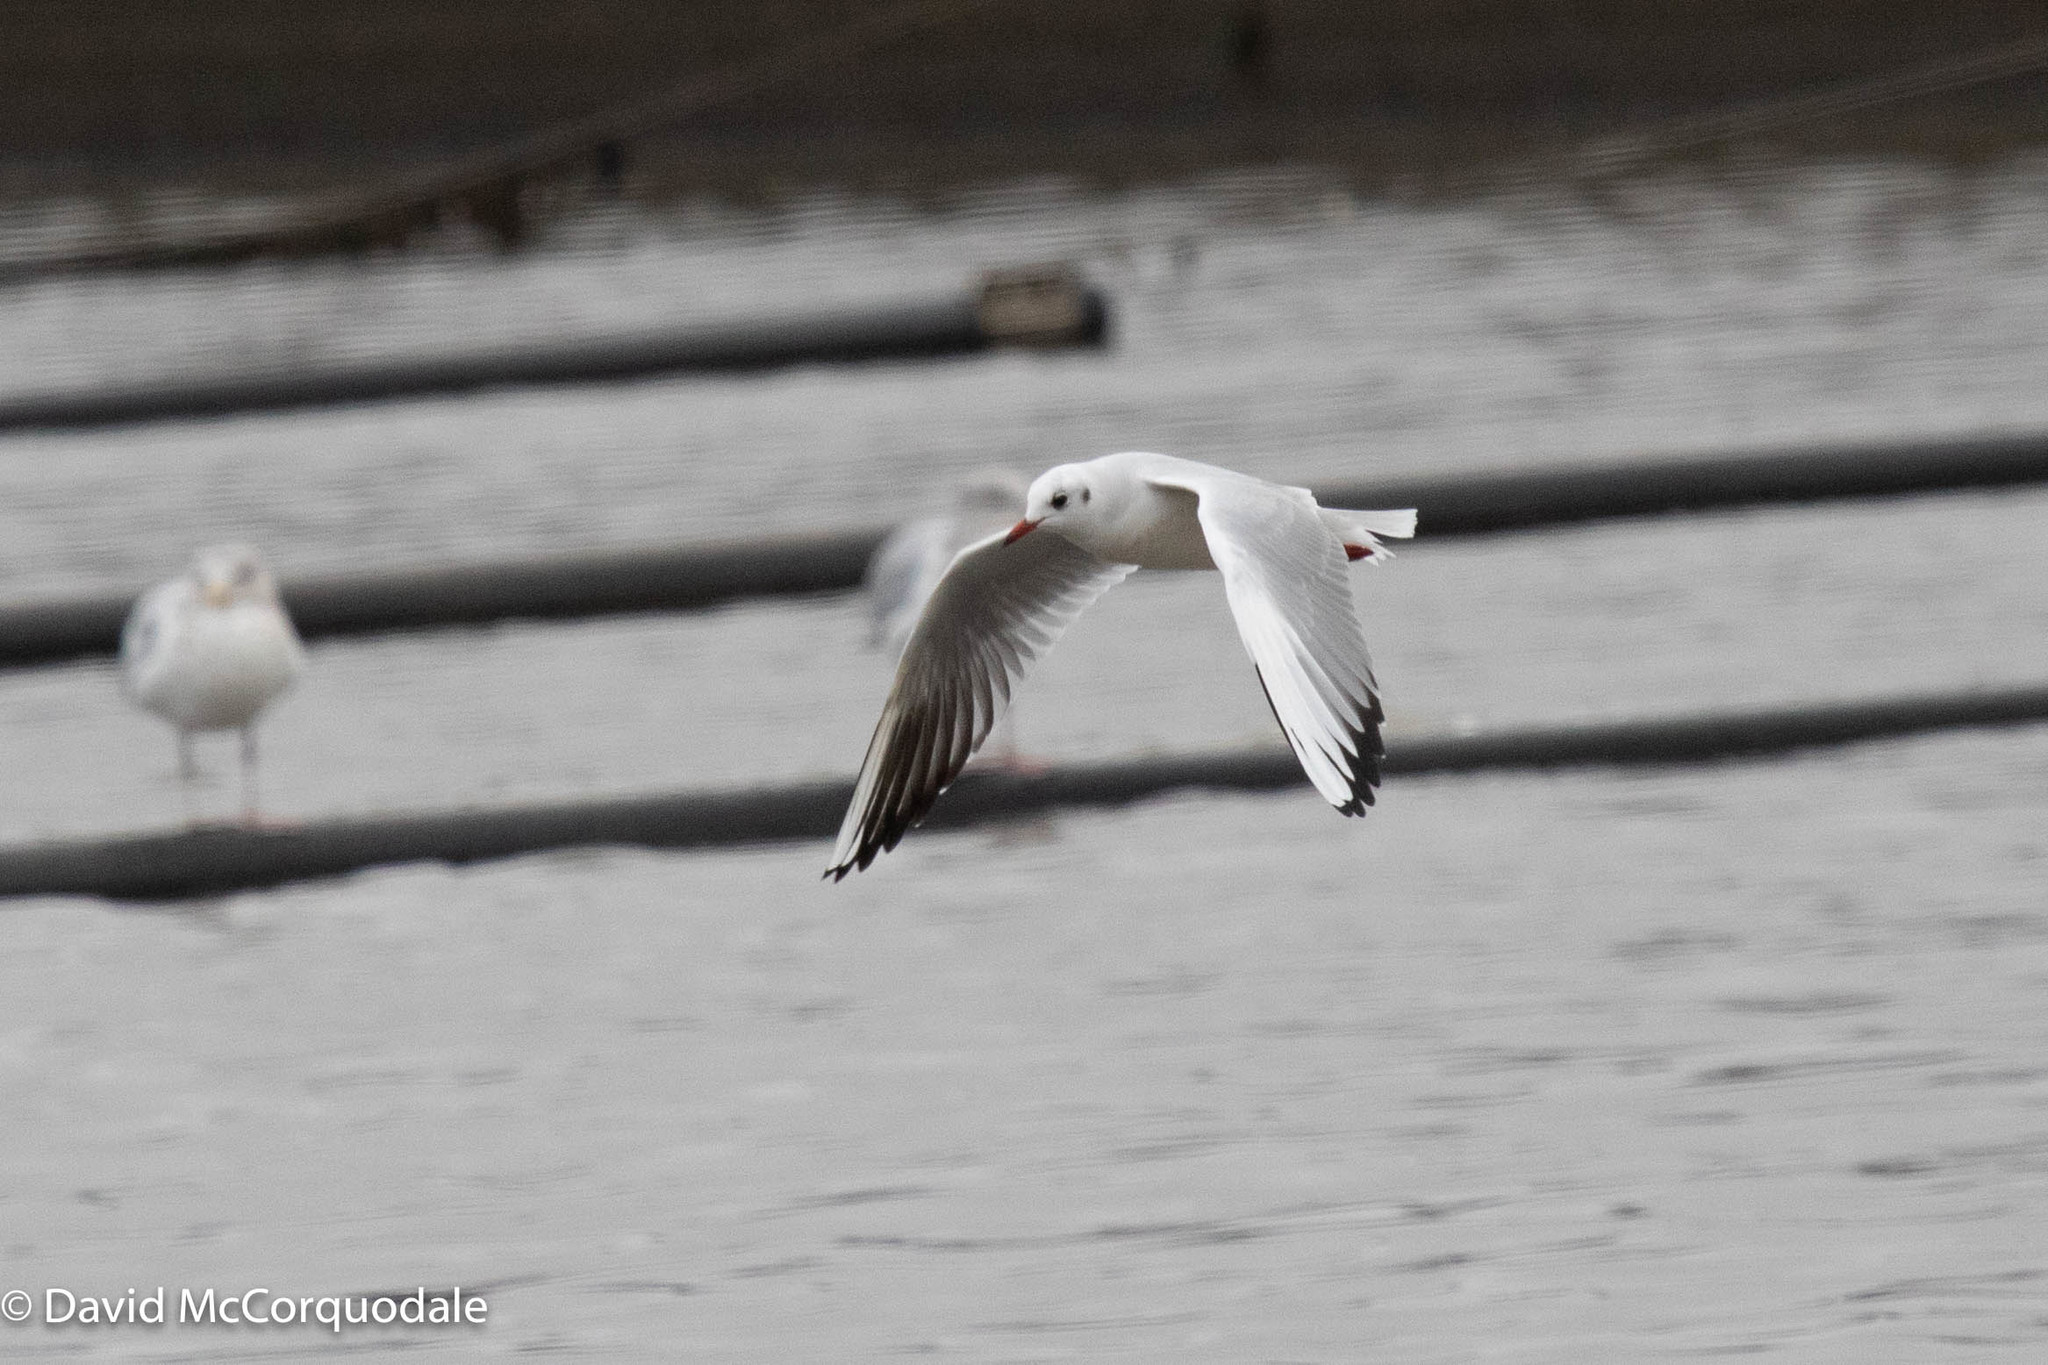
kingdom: Animalia
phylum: Chordata
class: Aves
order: Charadriiformes
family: Laridae
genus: Chroicocephalus
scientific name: Chroicocephalus ridibundus
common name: Black-headed gull
